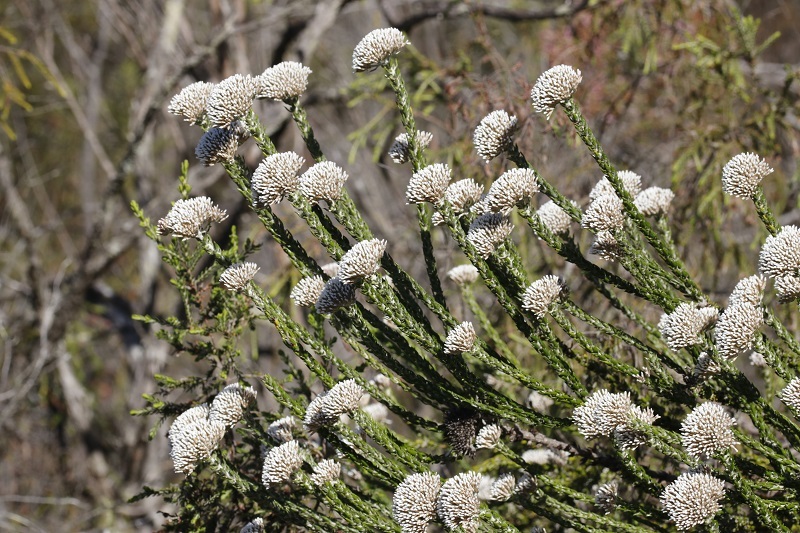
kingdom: Plantae
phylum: Tracheophyta
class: Magnoliopsida
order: Asterales
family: Asteraceae
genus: Metalasia
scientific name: Metalasia pungens
